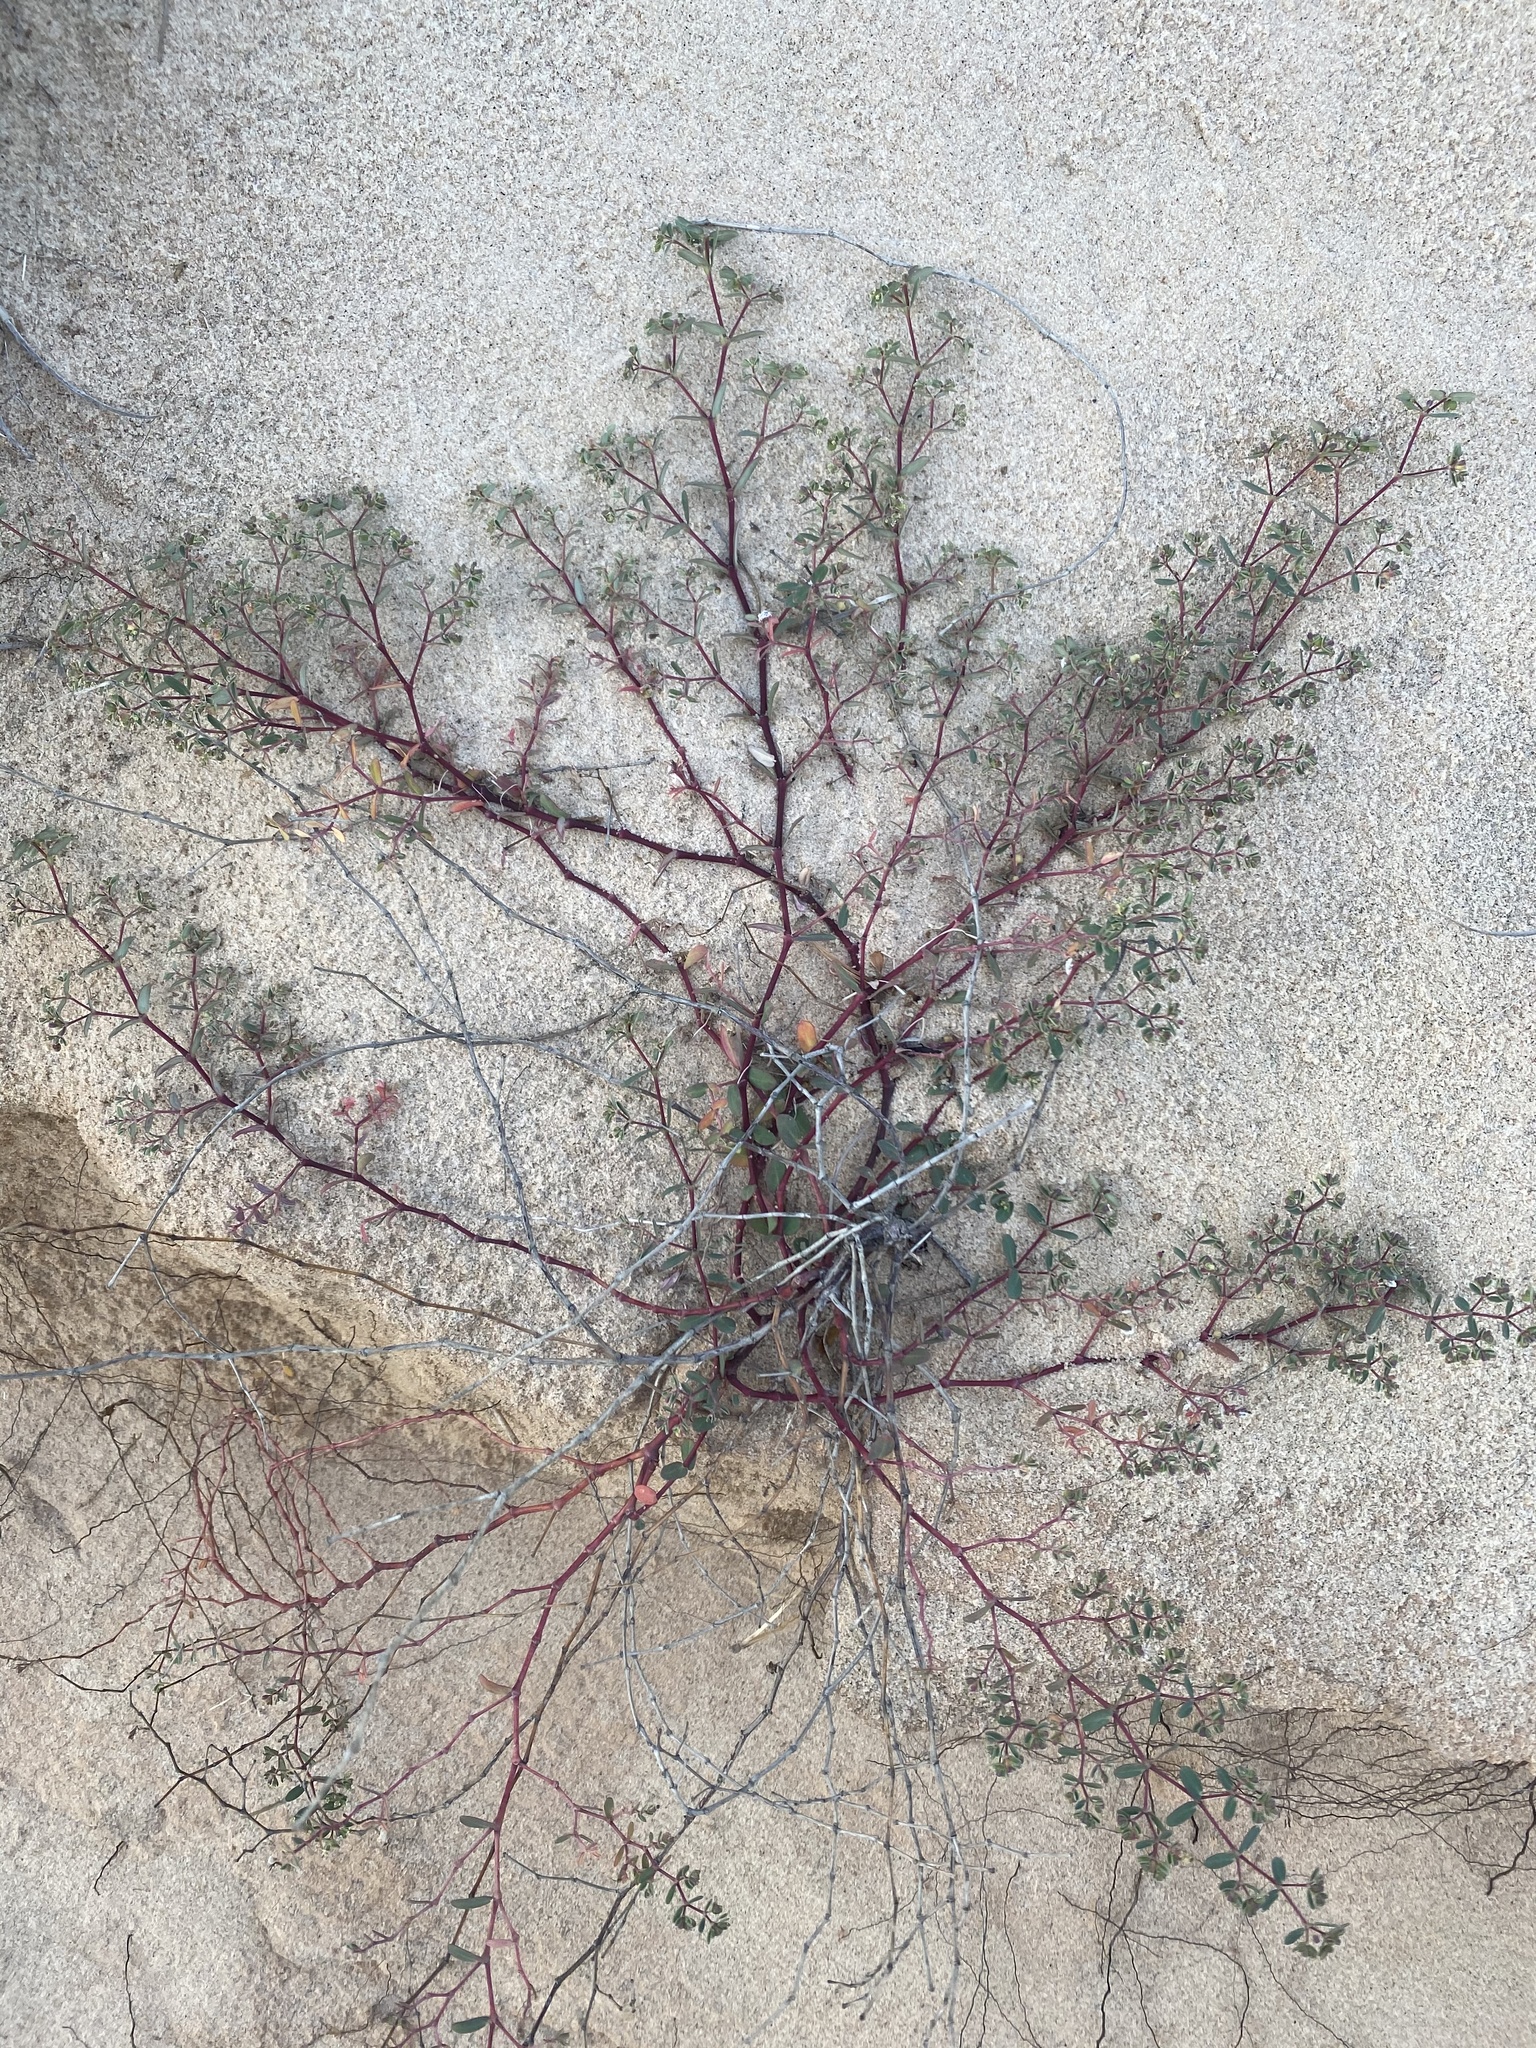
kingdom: Plantae
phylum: Tracheophyta
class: Magnoliopsida
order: Malpighiales
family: Euphorbiaceae
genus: Euphorbia
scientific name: Euphorbia bahiensis
